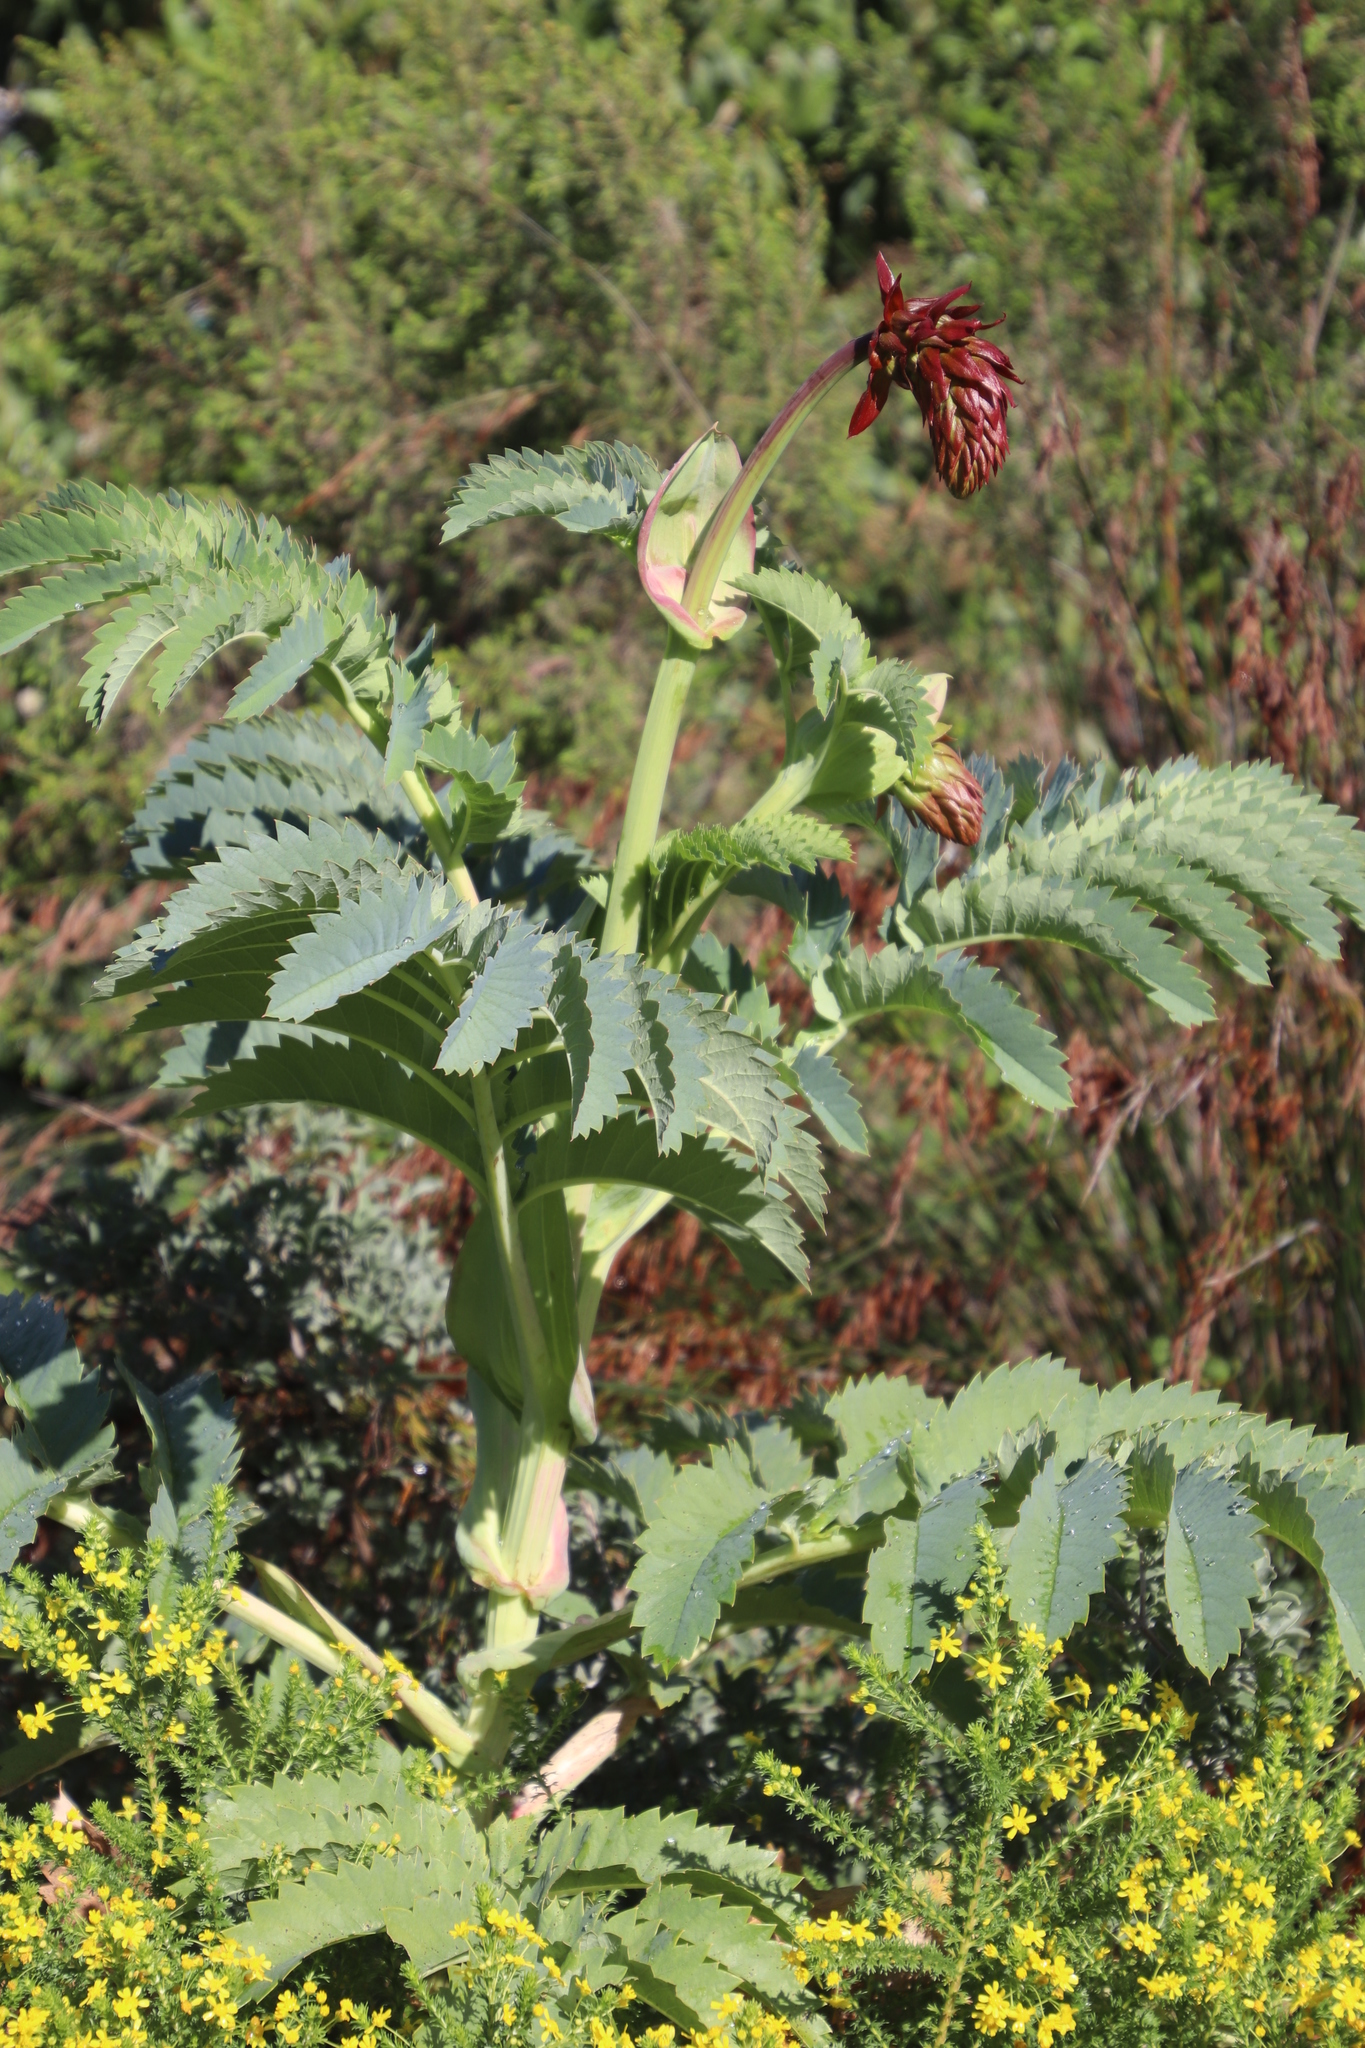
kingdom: Plantae
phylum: Tracheophyta
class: Magnoliopsida
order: Geraniales
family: Melianthaceae
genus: Melianthus
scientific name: Melianthus major
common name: Honey-flower
